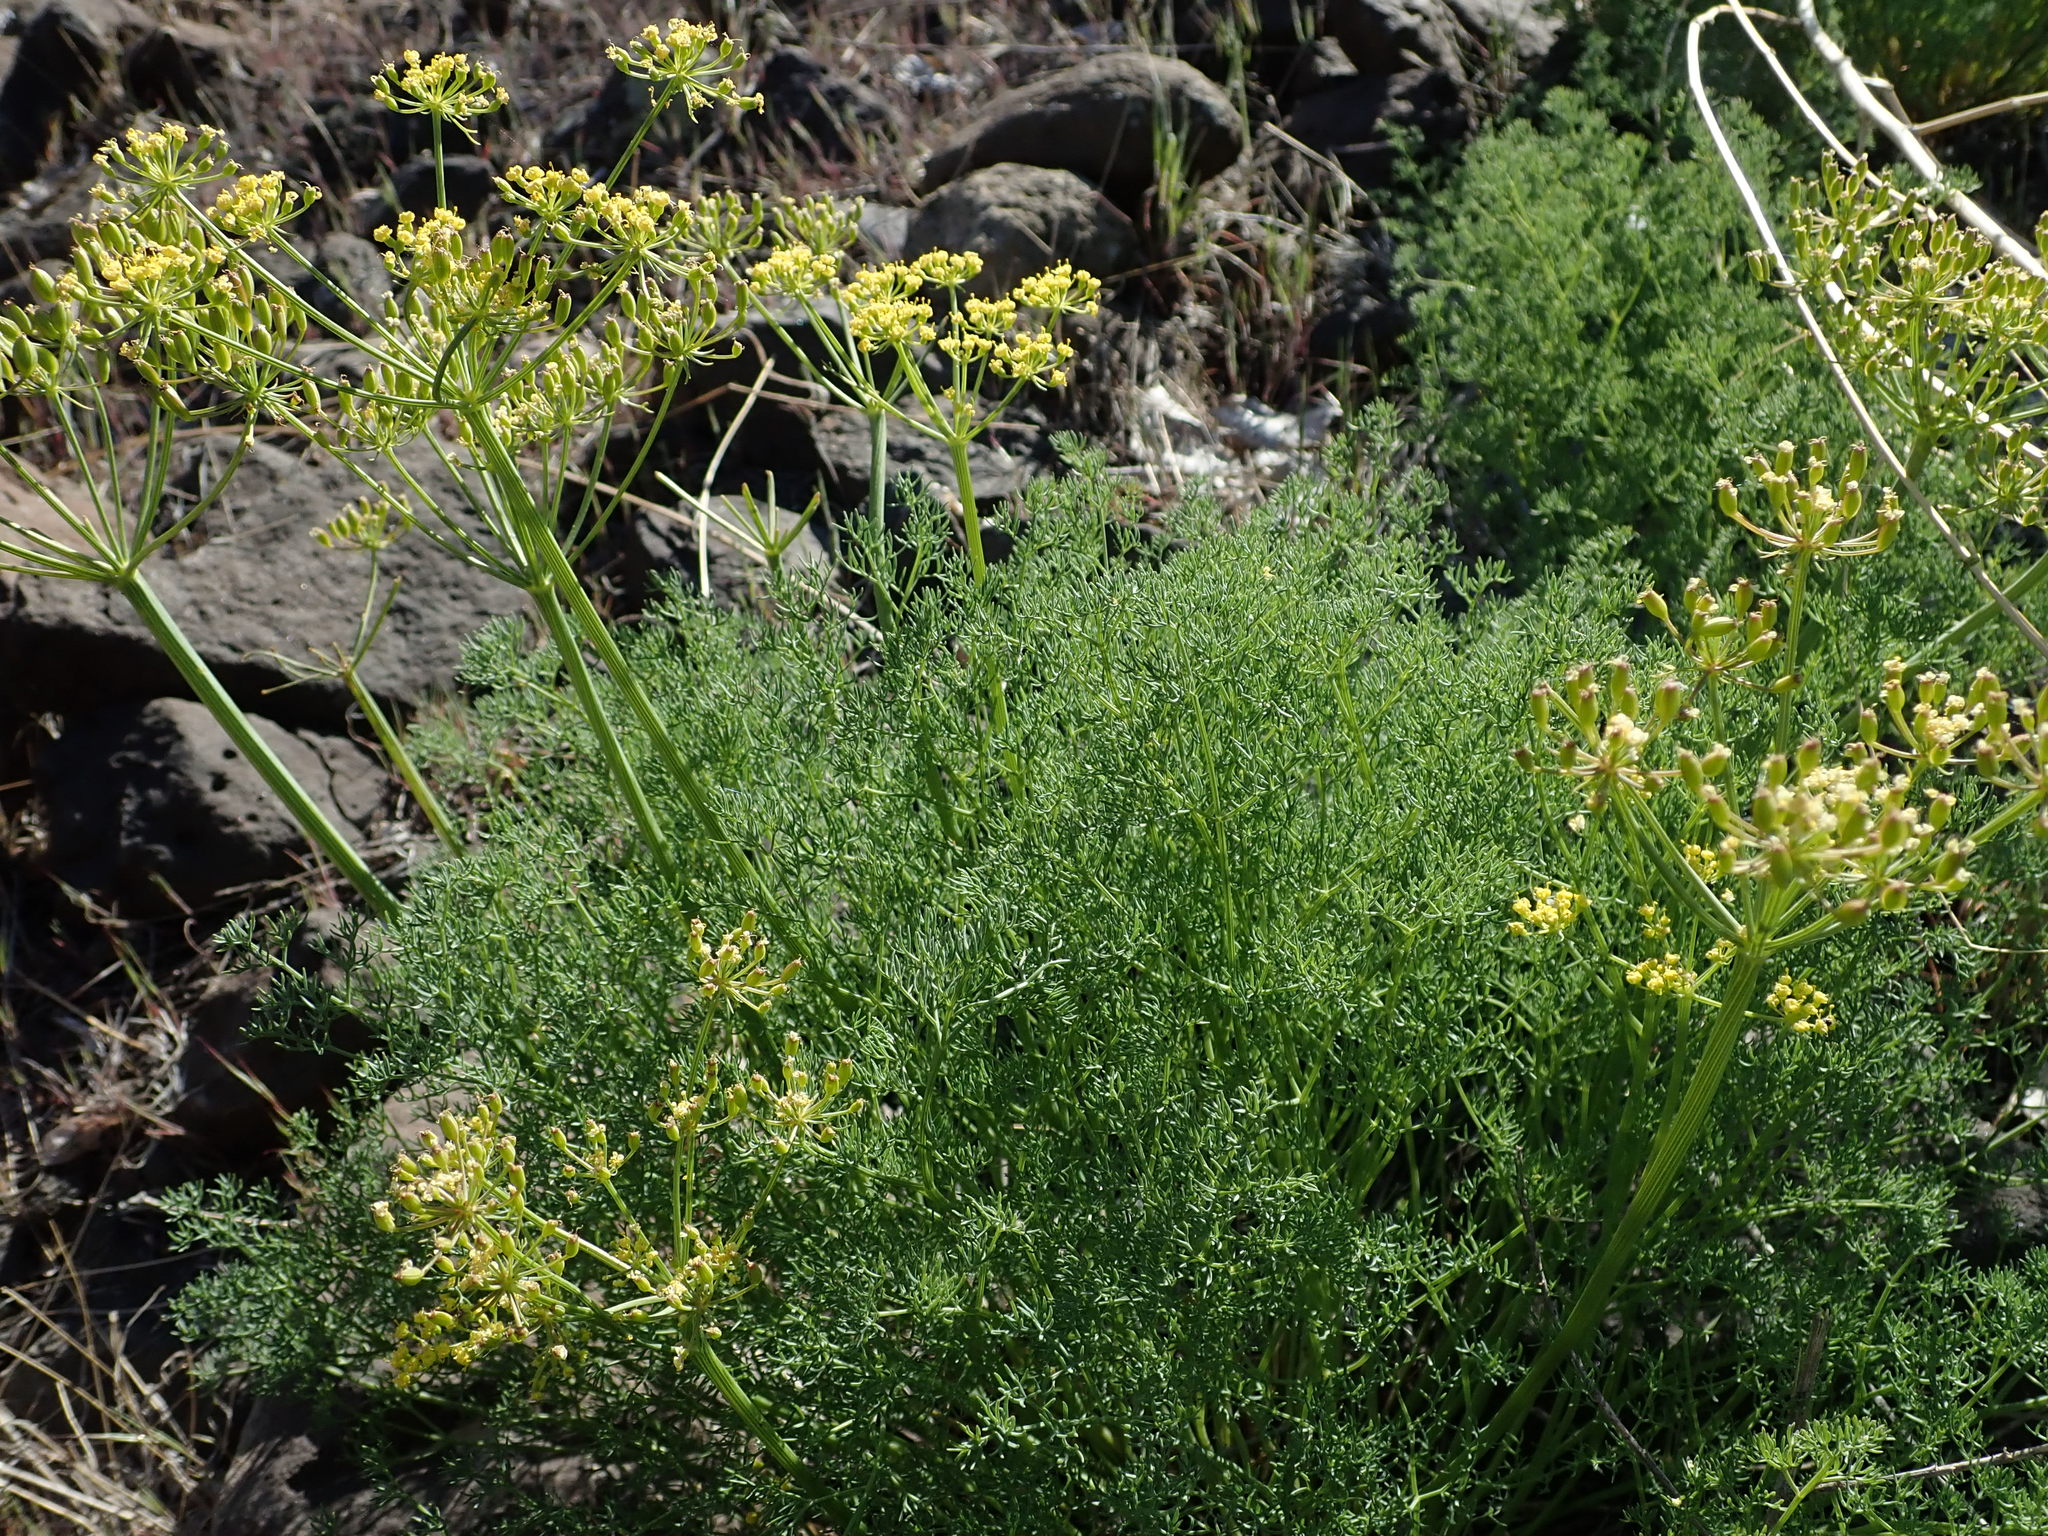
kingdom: Plantae
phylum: Tracheophyta
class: Magnoliopsida
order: Apiales
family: Apiaceae
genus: Lomatium
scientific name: Lomatium papilioniferum
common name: Butterfly lomatium
